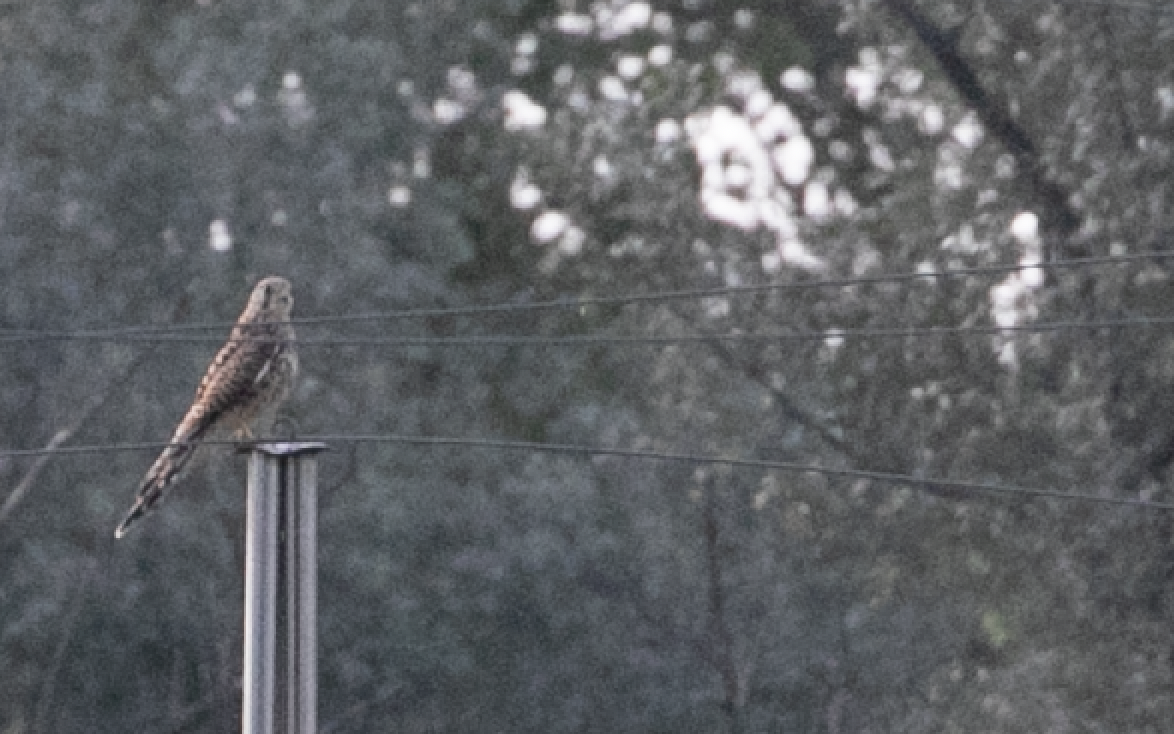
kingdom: Animalia
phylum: Chordata
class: Aves
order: Falconiformes
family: Falconidae
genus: Falco
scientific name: Falco tinnunculus
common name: Common kestrel
